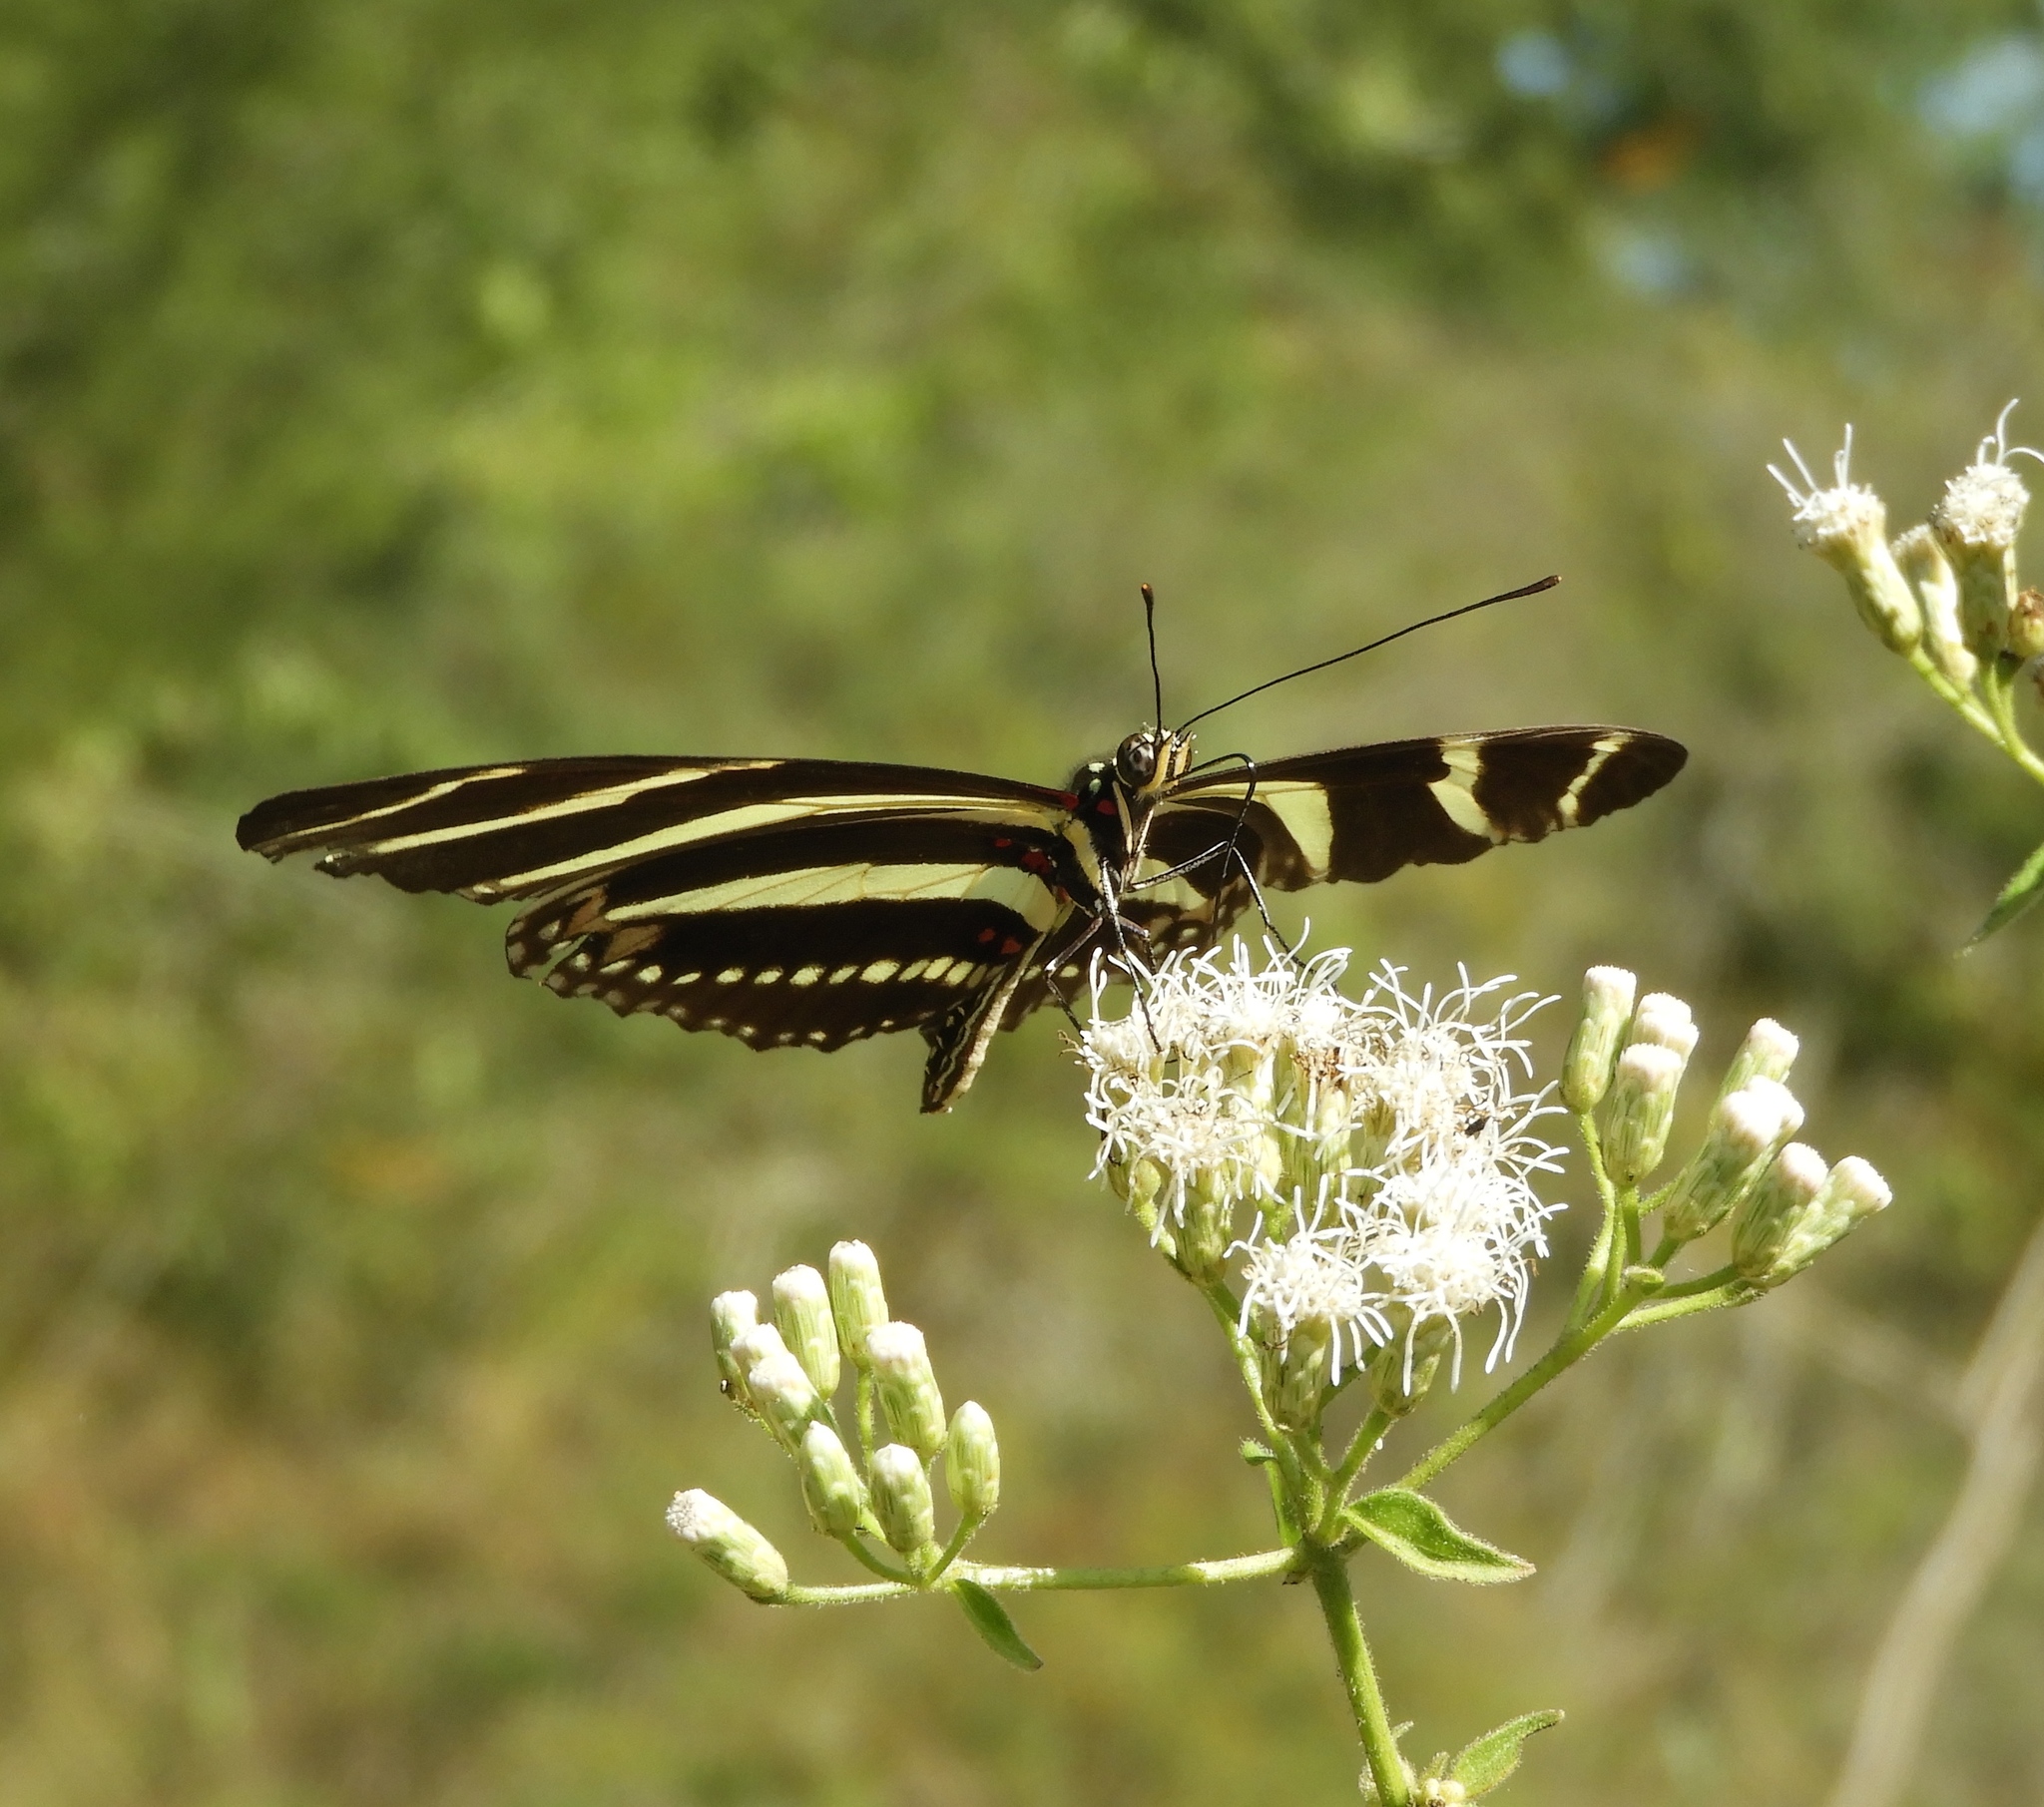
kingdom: Animalia
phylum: Arthropoda
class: Insecta
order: Lepidoptera
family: Nymphalidae
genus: Heliconius
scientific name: Heliconius charithonia
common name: Zebra long wing
